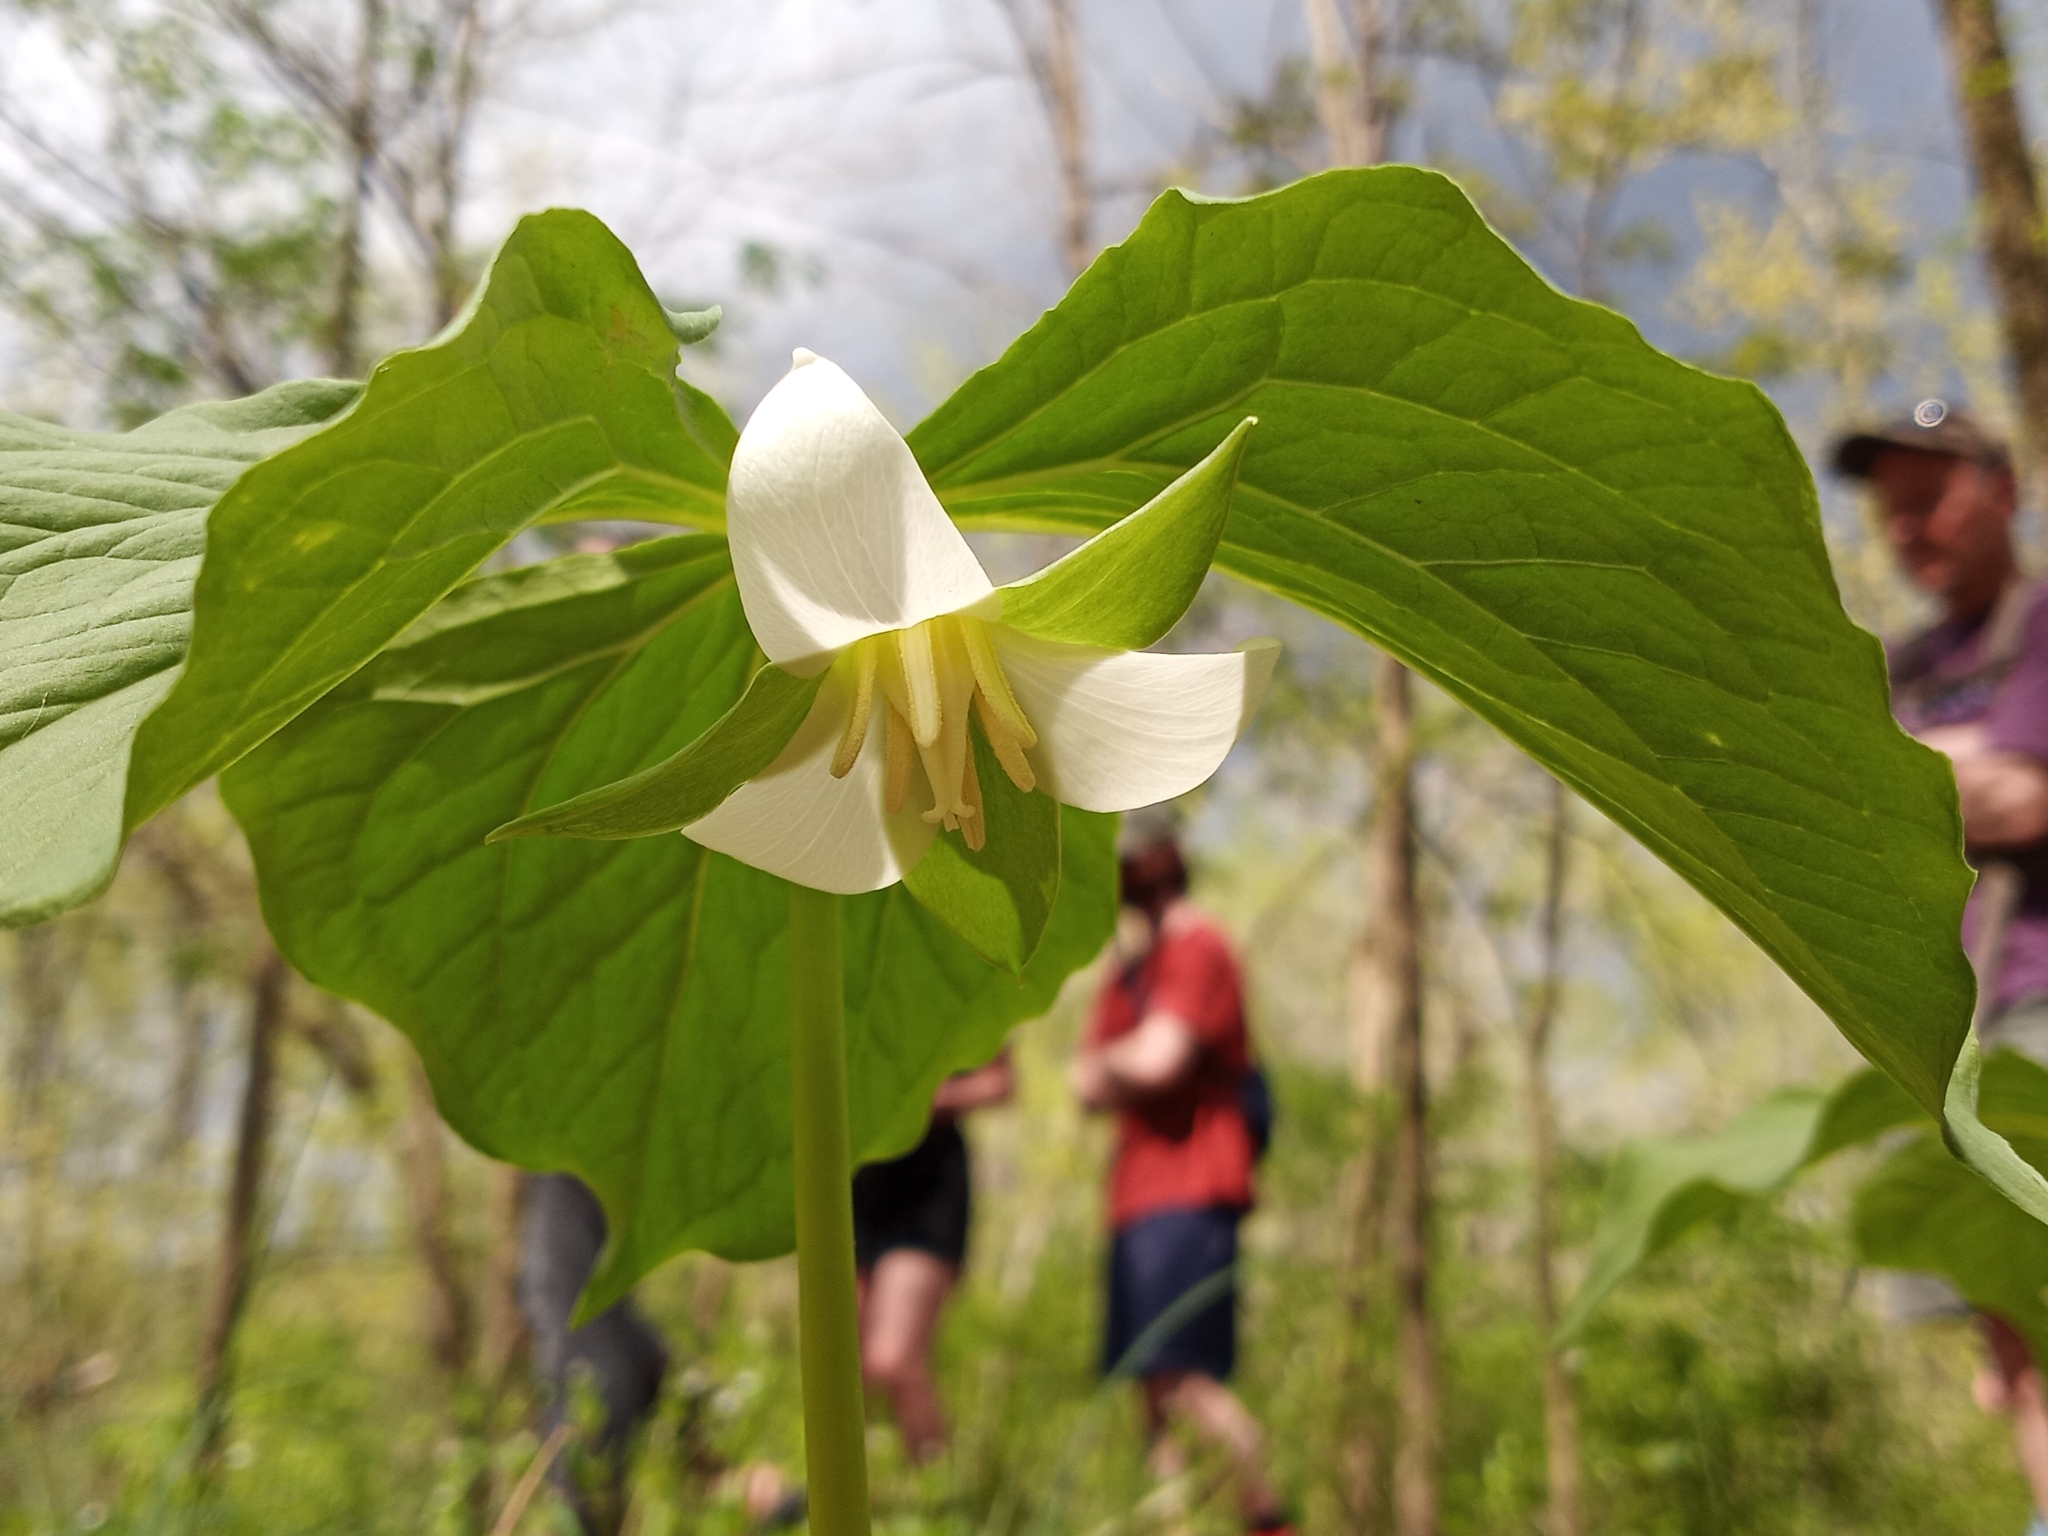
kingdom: Plantae
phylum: Tracheophyta
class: Liliopsida
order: Liliales
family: Melanthiaceae
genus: Trillium
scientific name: Trillium flexipes
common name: Drooping trillium
